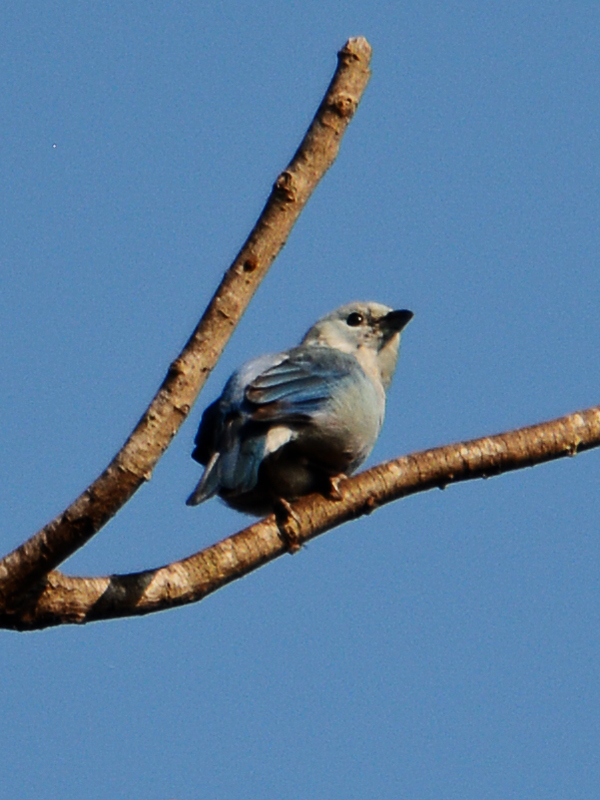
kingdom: Animalia
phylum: Chordata
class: Aves
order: Passeriformes
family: Thraupidae
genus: Thraupis
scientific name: Thraupis episcopus
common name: Blue-grey tanager
